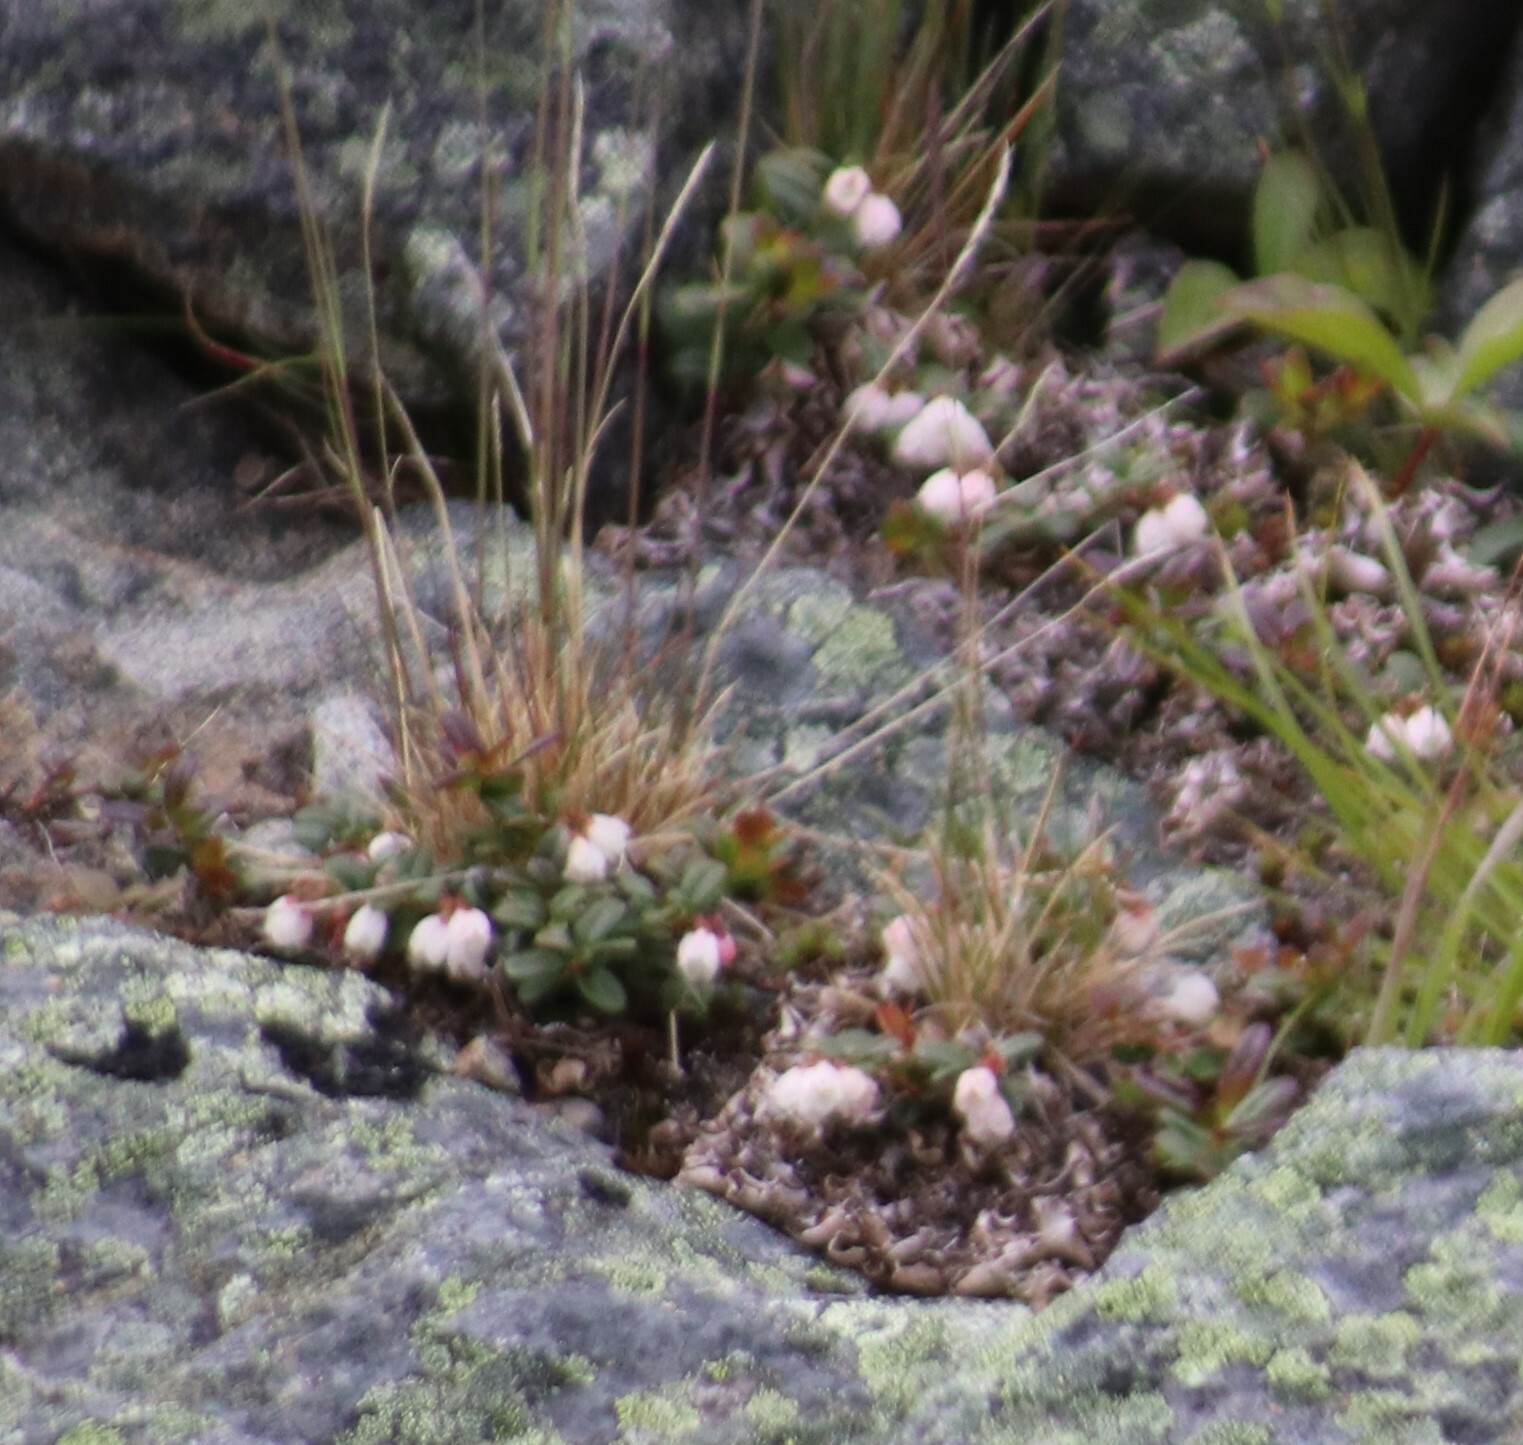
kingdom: Plantae
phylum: Tracheophyta
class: Magnoliopsida
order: Ericales
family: Ericaceae
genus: Vaccinium
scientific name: Vaccinium vitis-idaea
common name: Cowberry
